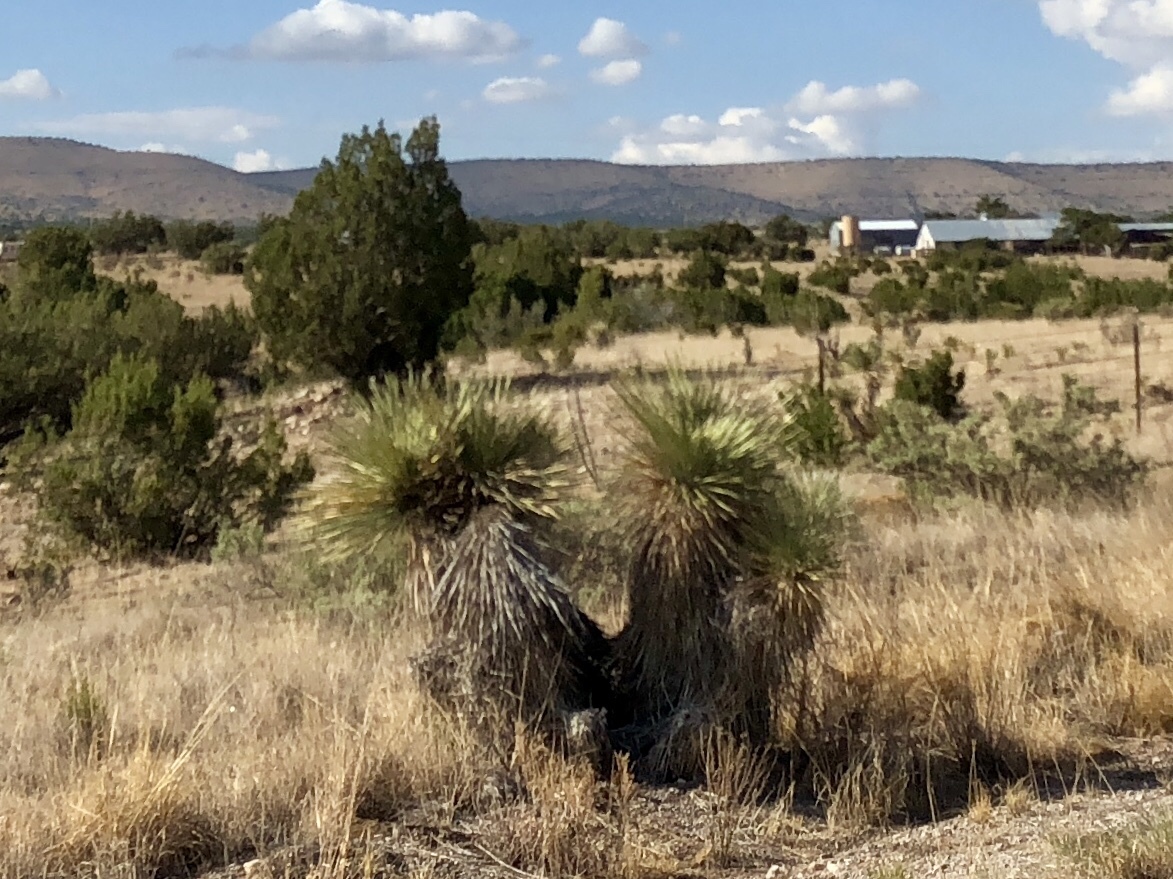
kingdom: Plantae
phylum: Tracheophyta
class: Liliopsida
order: Asparagales
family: Asparagaceae
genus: Yucca
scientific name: Yucca elata
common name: Palmella
